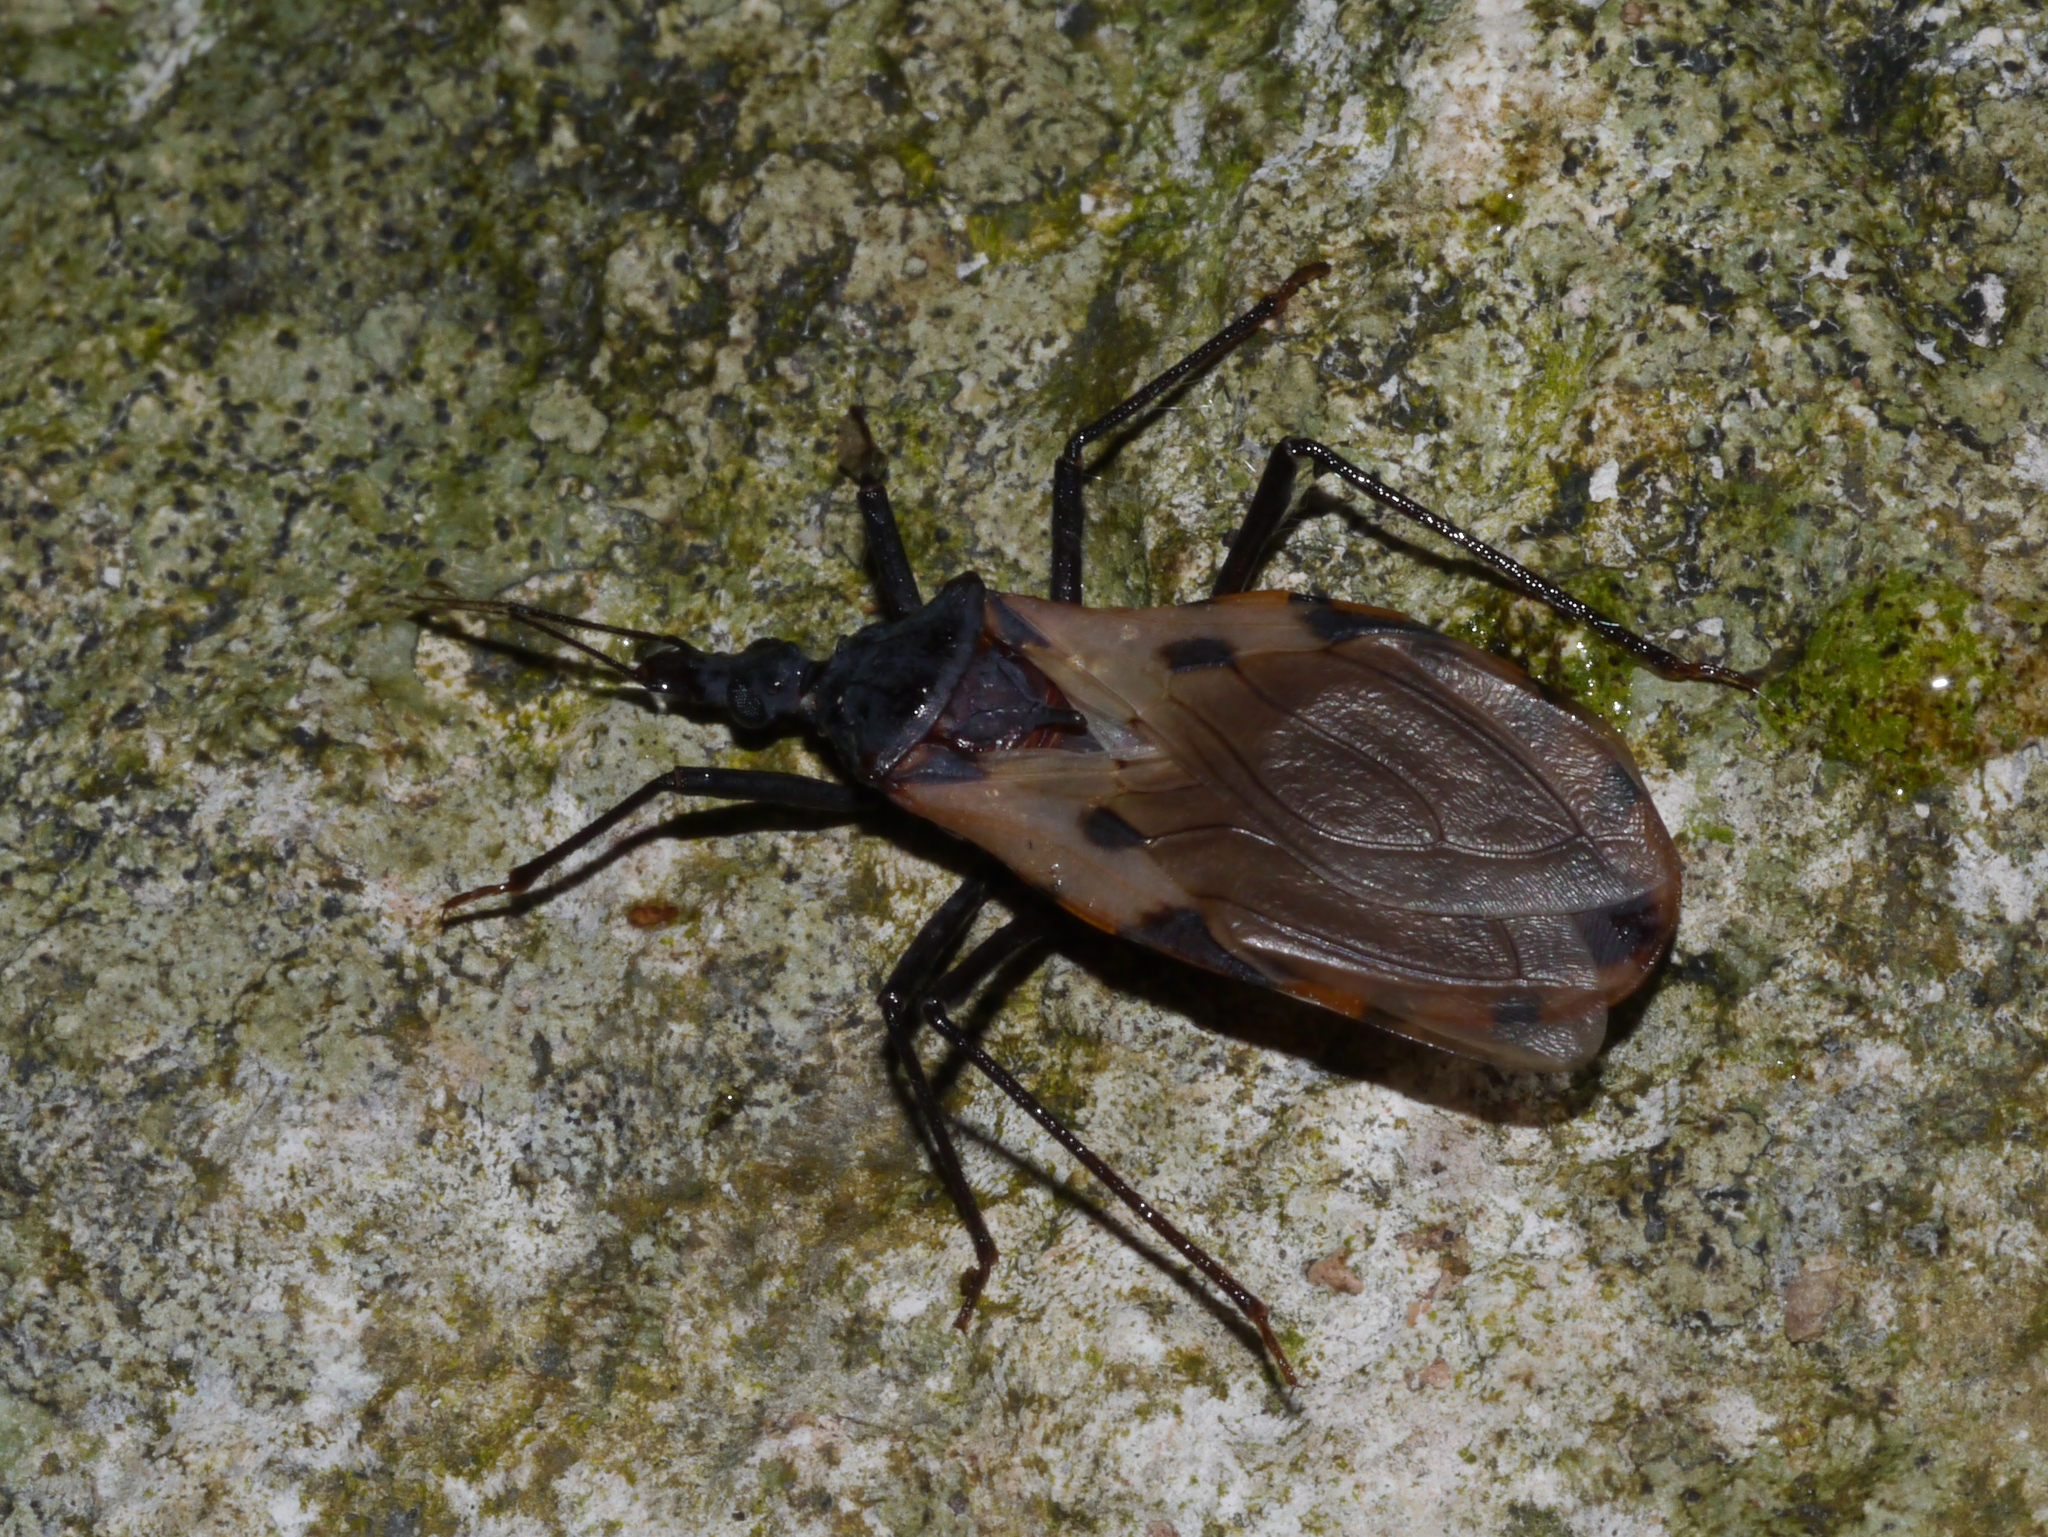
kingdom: Animalia
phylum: Arthropoda
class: Insecta
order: Hemiptera
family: Reduviidae
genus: Meccus
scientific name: Meccus dimidiatus
